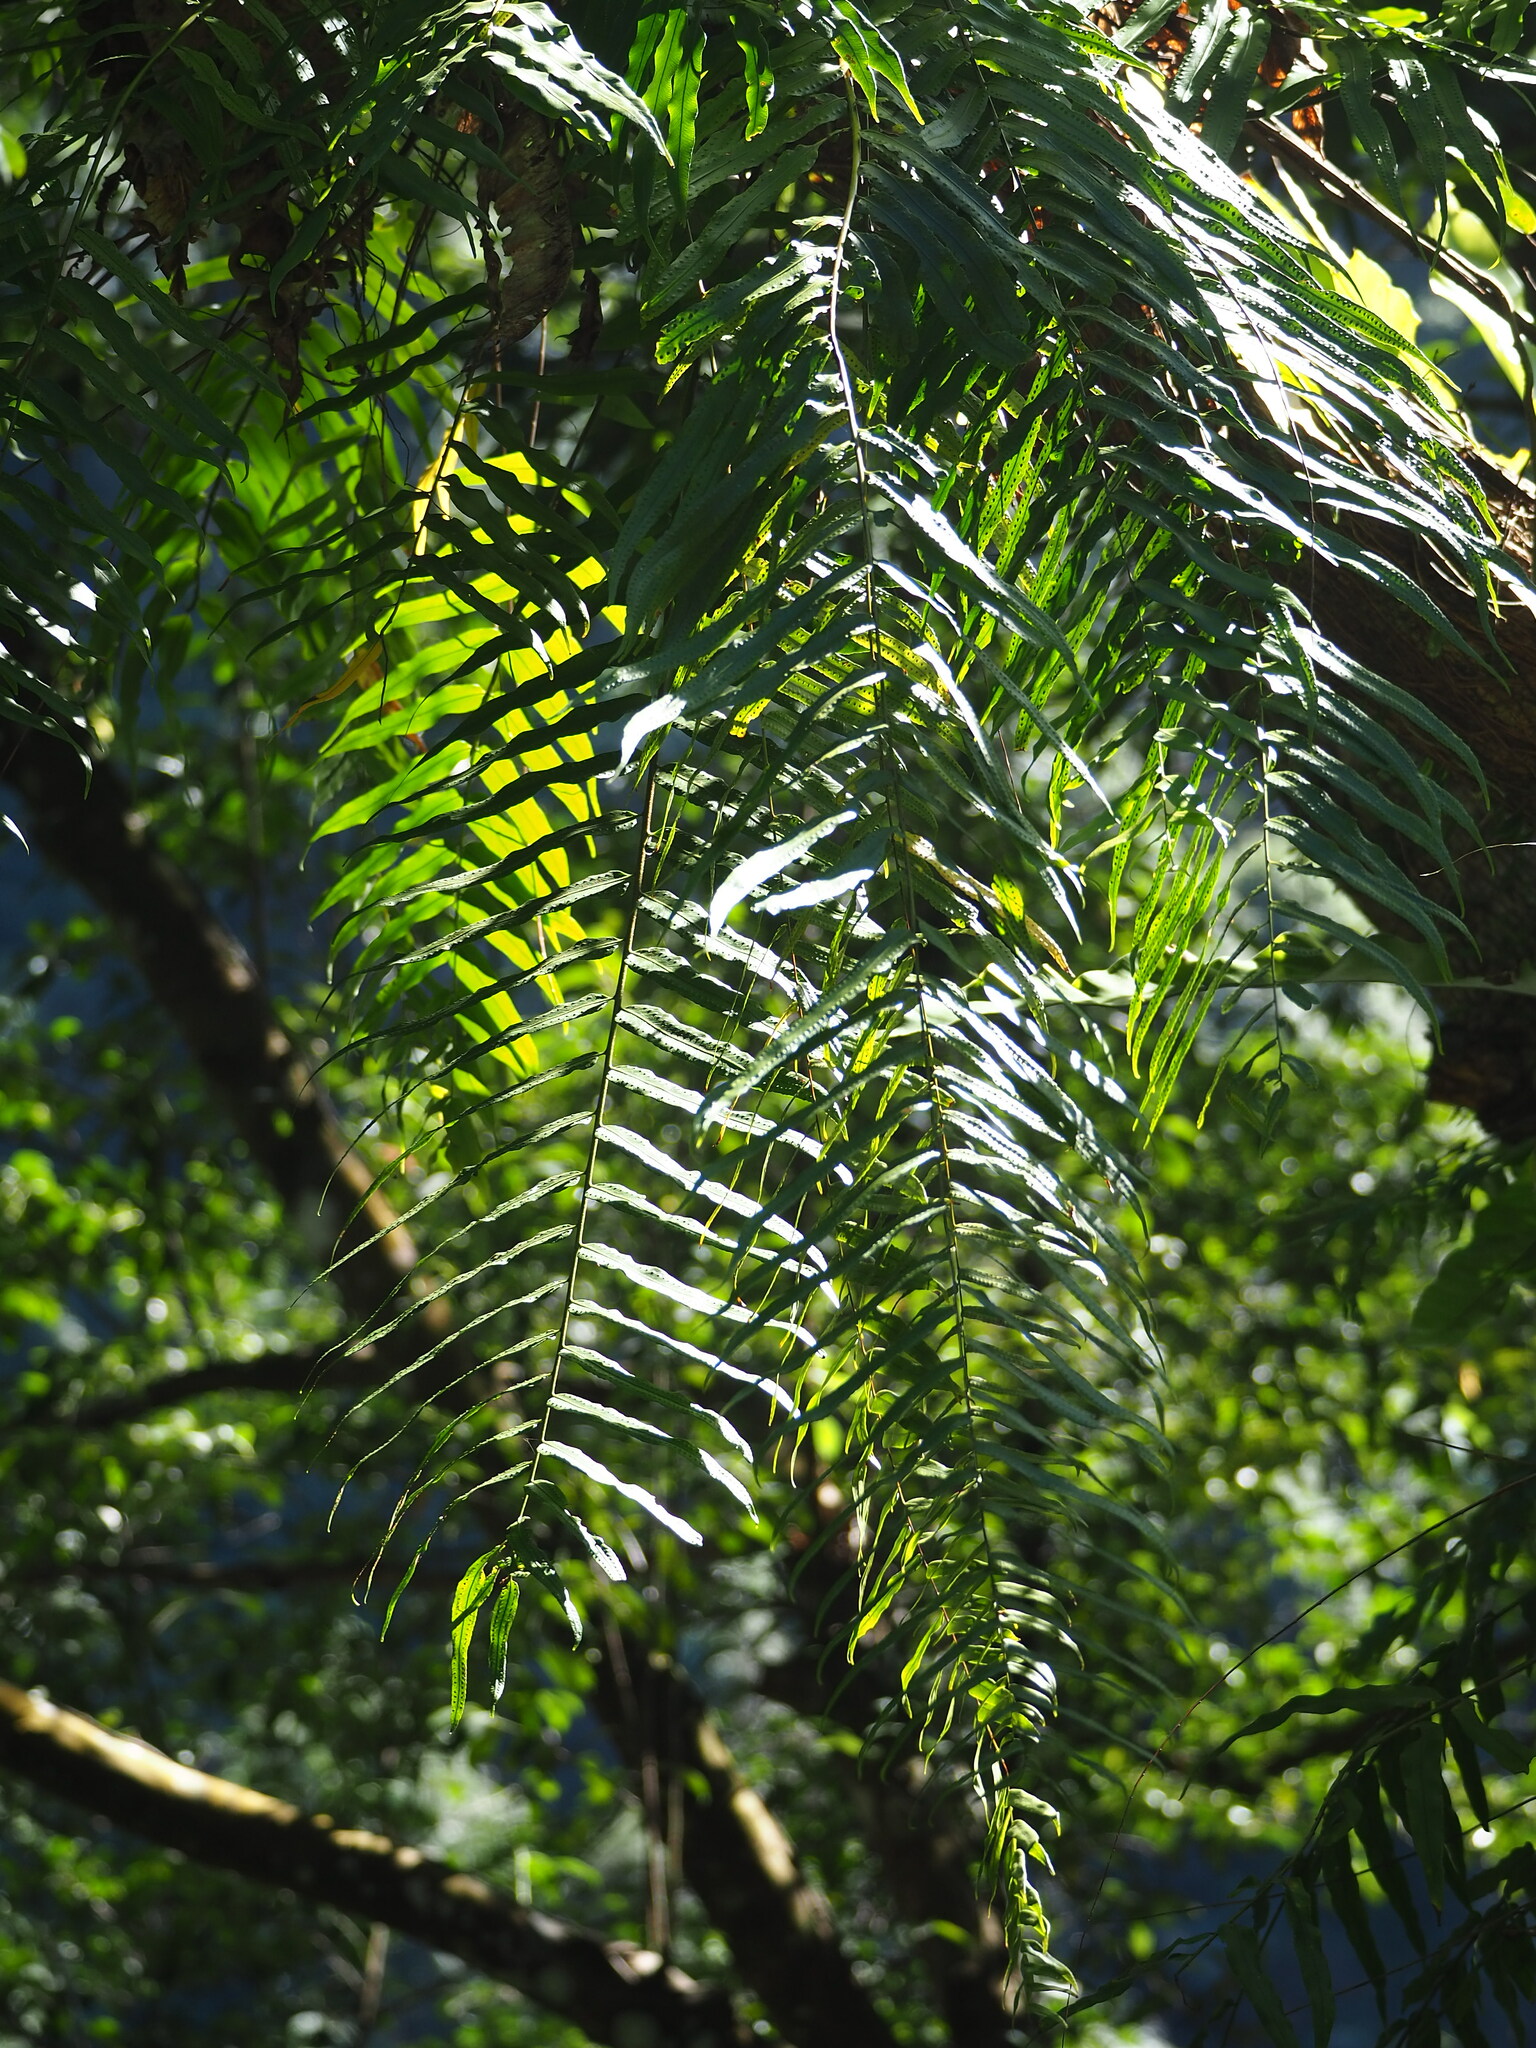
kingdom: Plantae
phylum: Tracheophyta
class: Polypodiopsida
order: Polypodiales
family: Nephrolepidaceae
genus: Nephrolepis
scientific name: Nephrolepis biserrata
